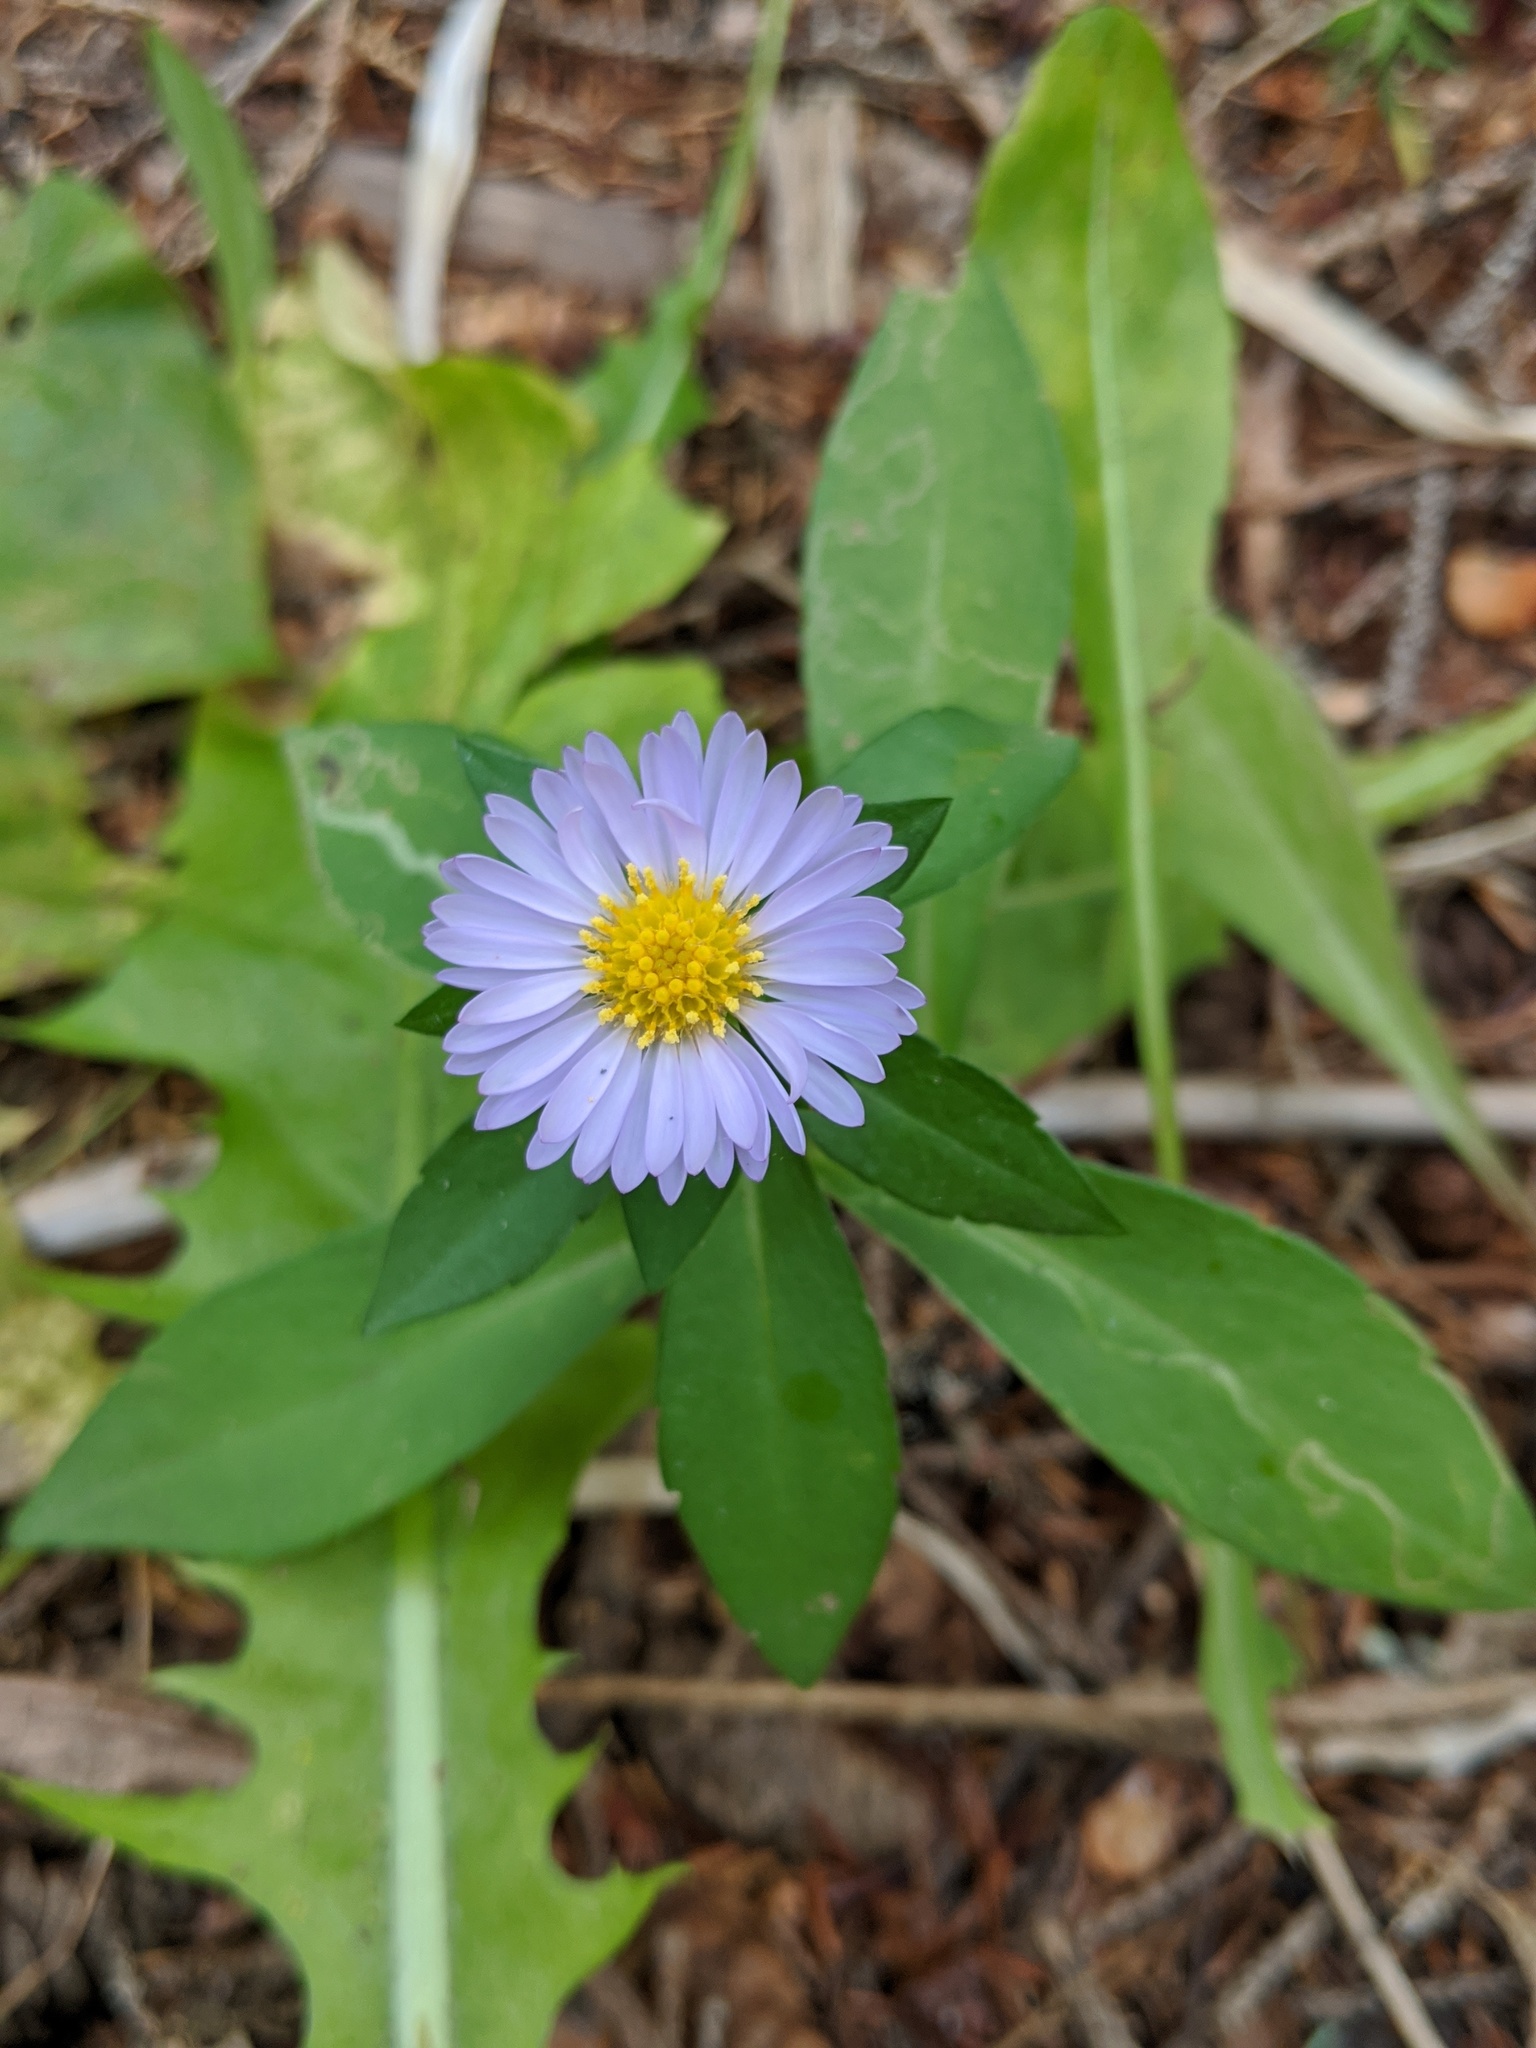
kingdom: Plantae
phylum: Tracheophyta
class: Magnoliopsida
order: Asterales
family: Asteraceae
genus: Symphyotrichum
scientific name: Symphyotrichum novi-belgii
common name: Michaelmas daisy
